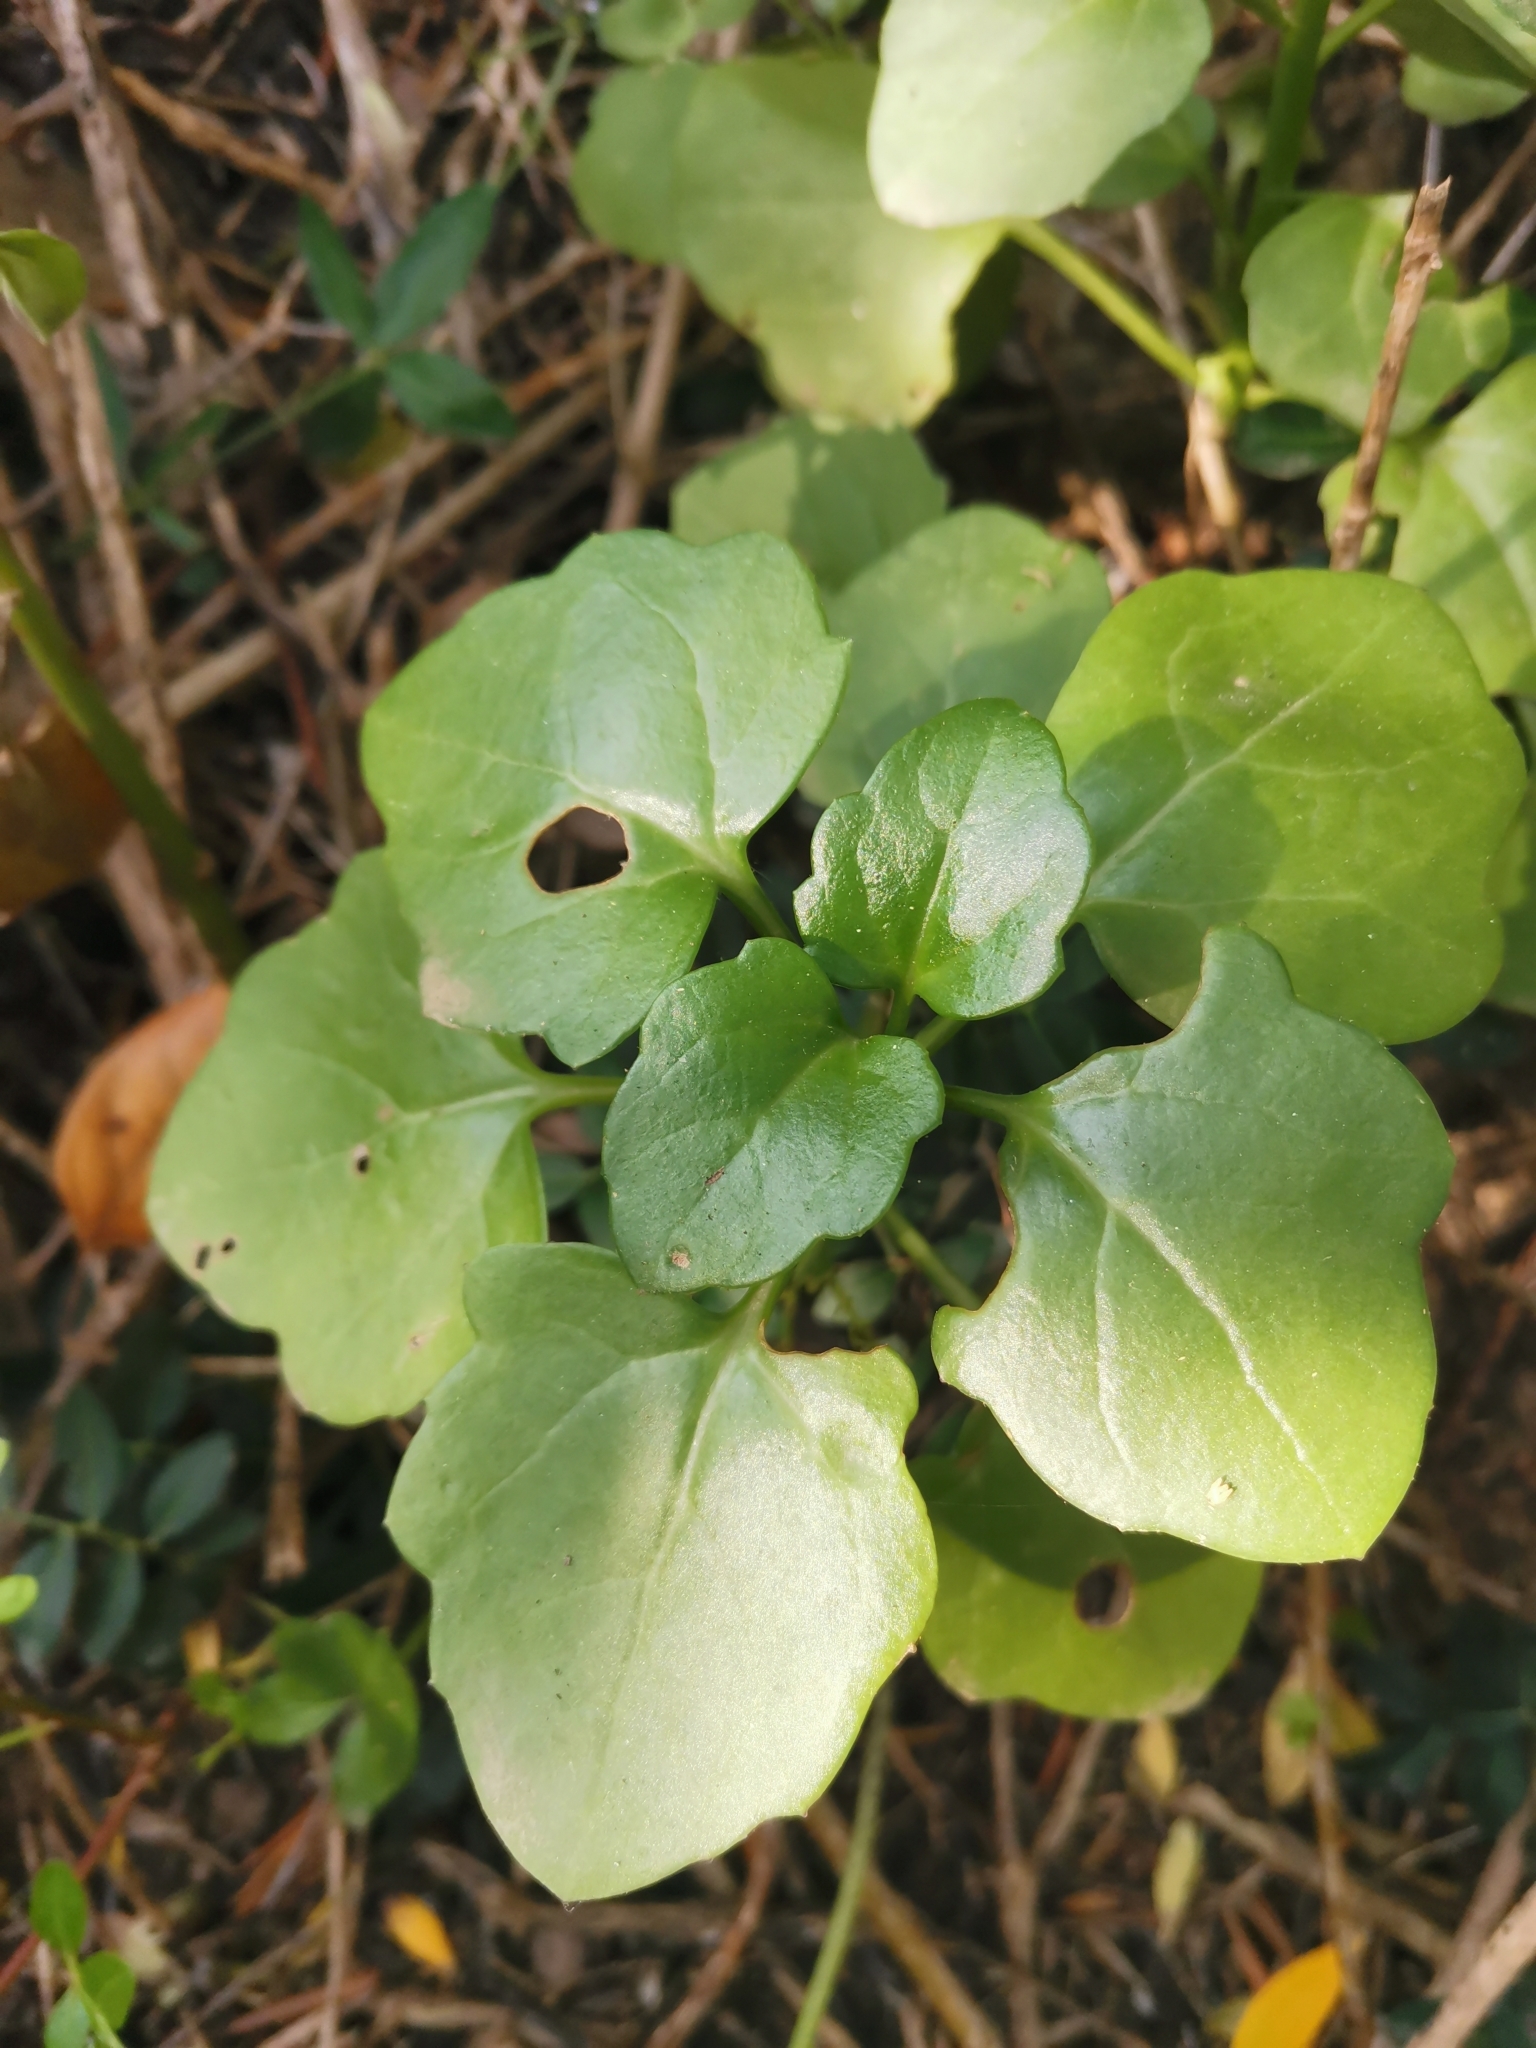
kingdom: Plantae
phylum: Tracheophyta
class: Magnoliopsida
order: Asterales
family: Asteraceae
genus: Senecio
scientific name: Senecio angulatus
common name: Climbing groundsel
